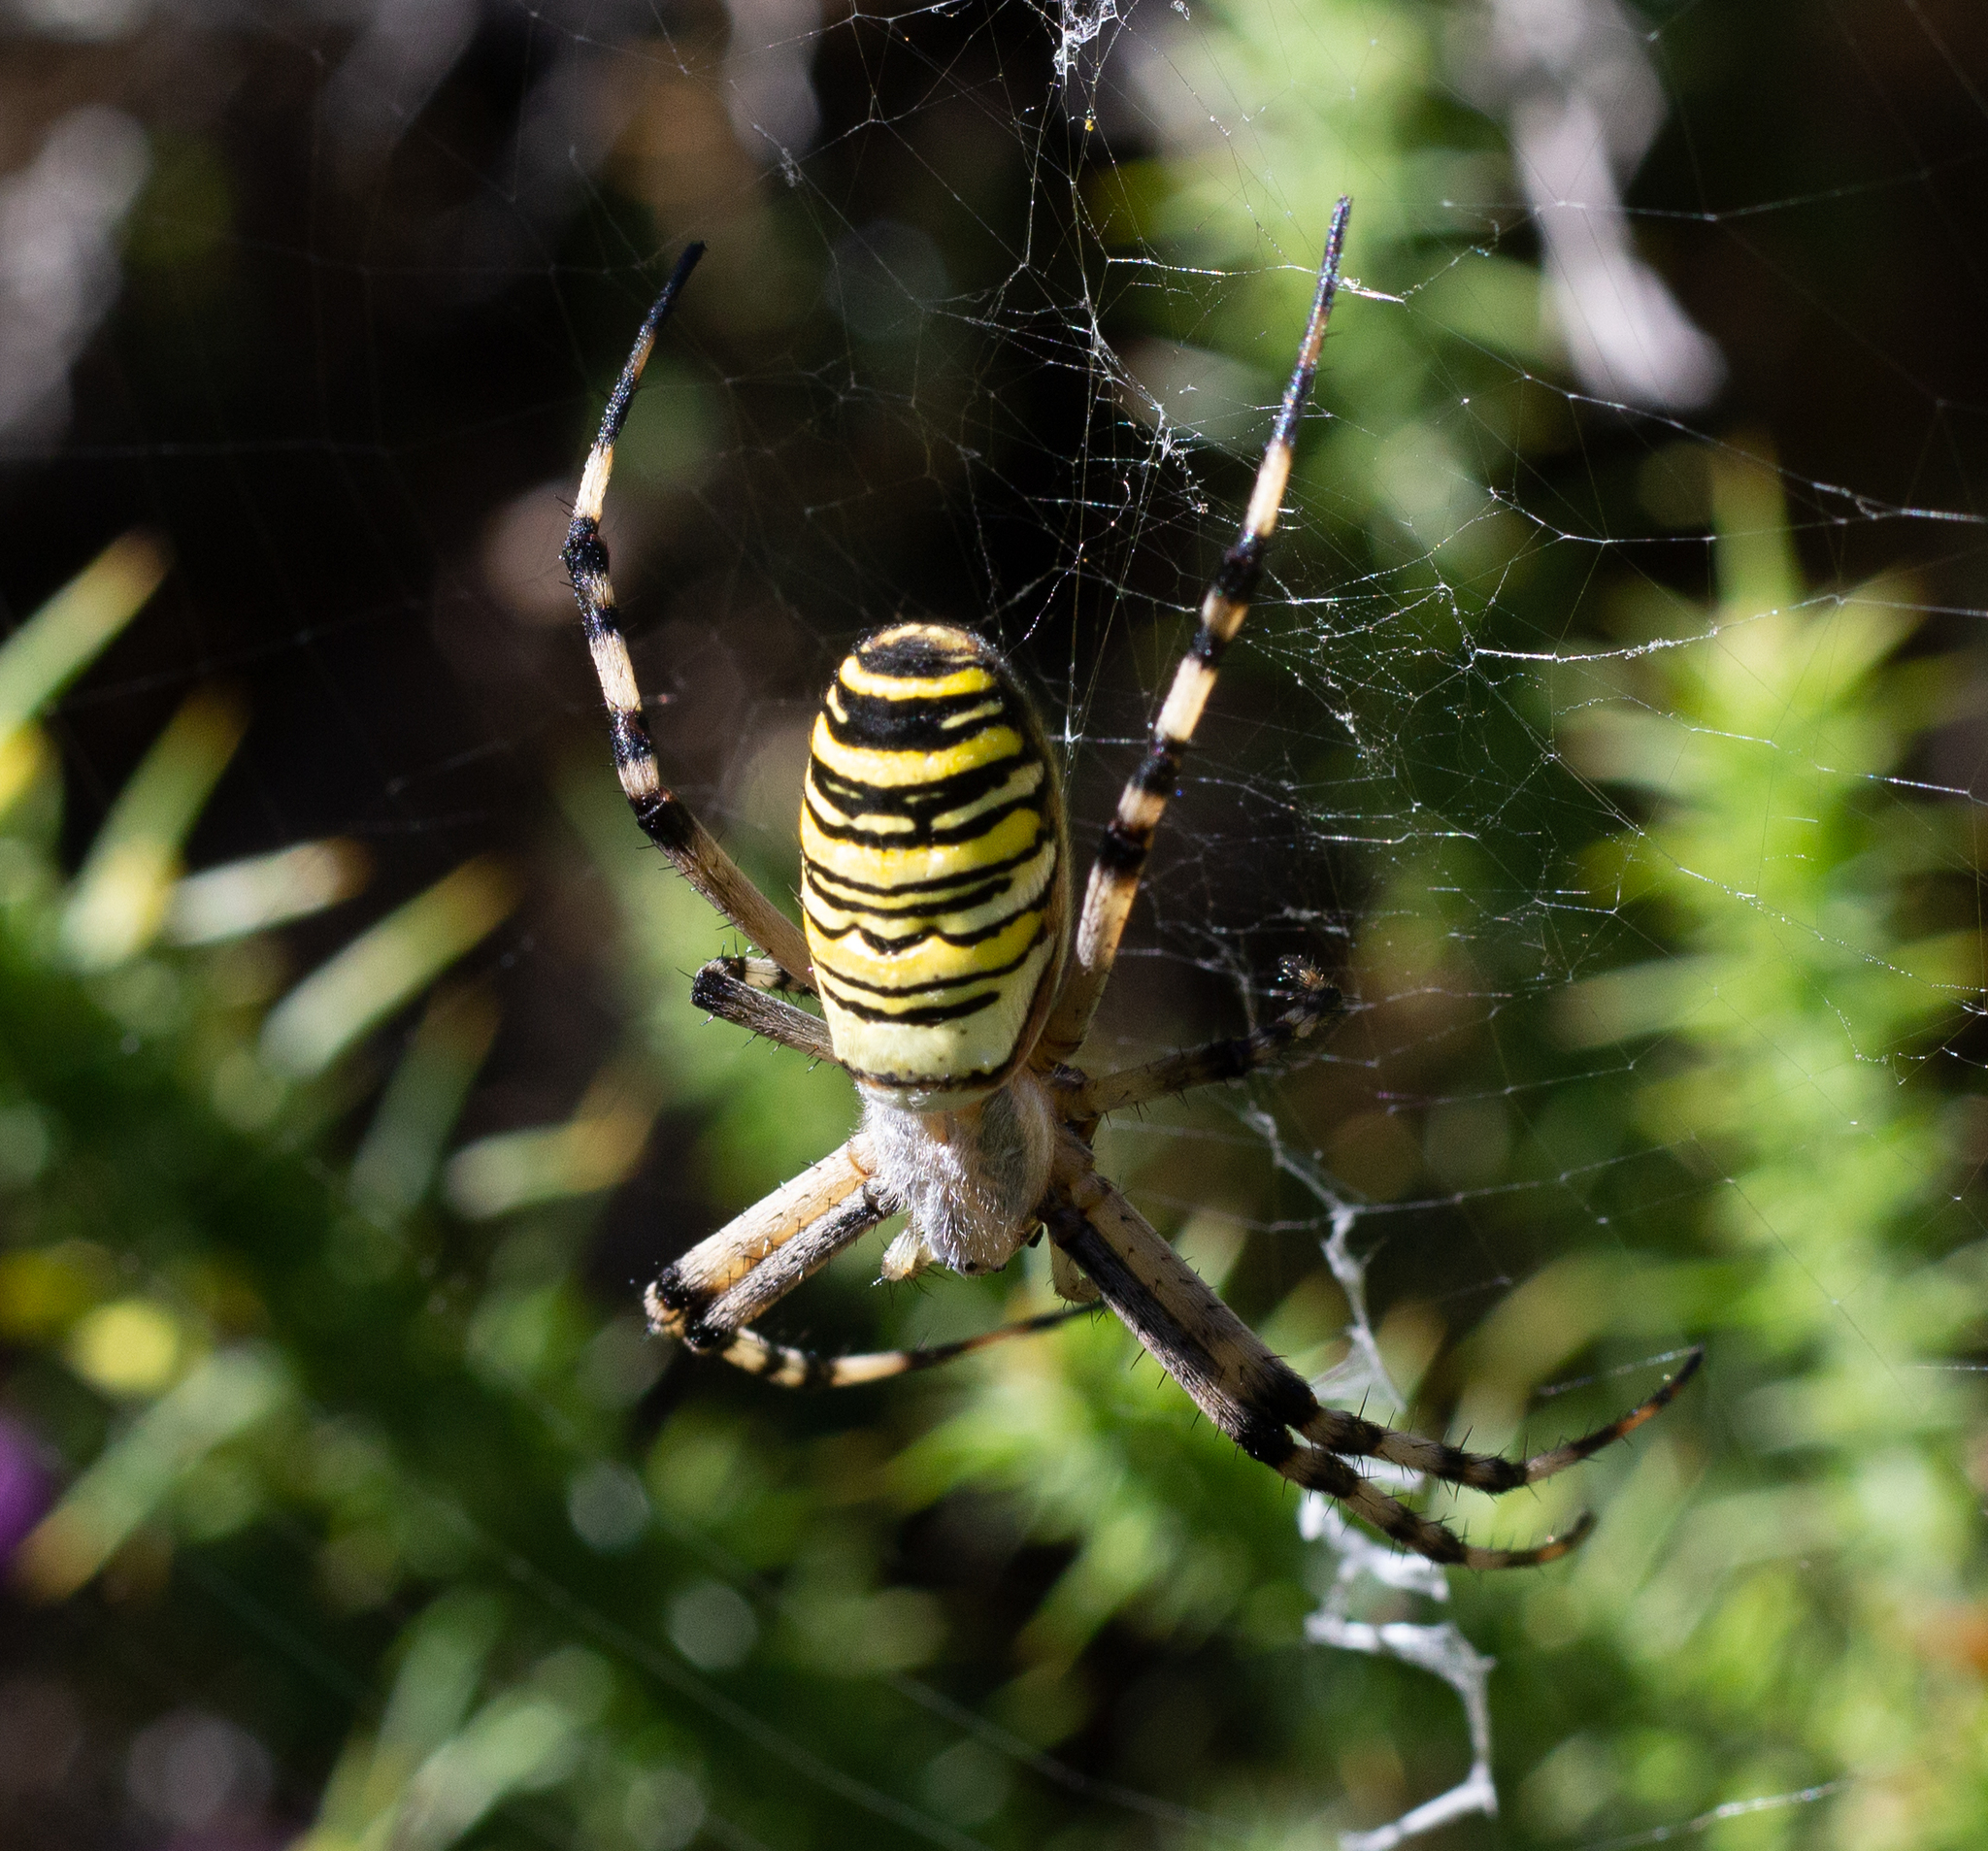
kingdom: Animalia
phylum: Arthropoda
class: Arachnida
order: Araneae
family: Araneidae
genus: Argiope
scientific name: Argiope bruennichi
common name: Wasp spider
